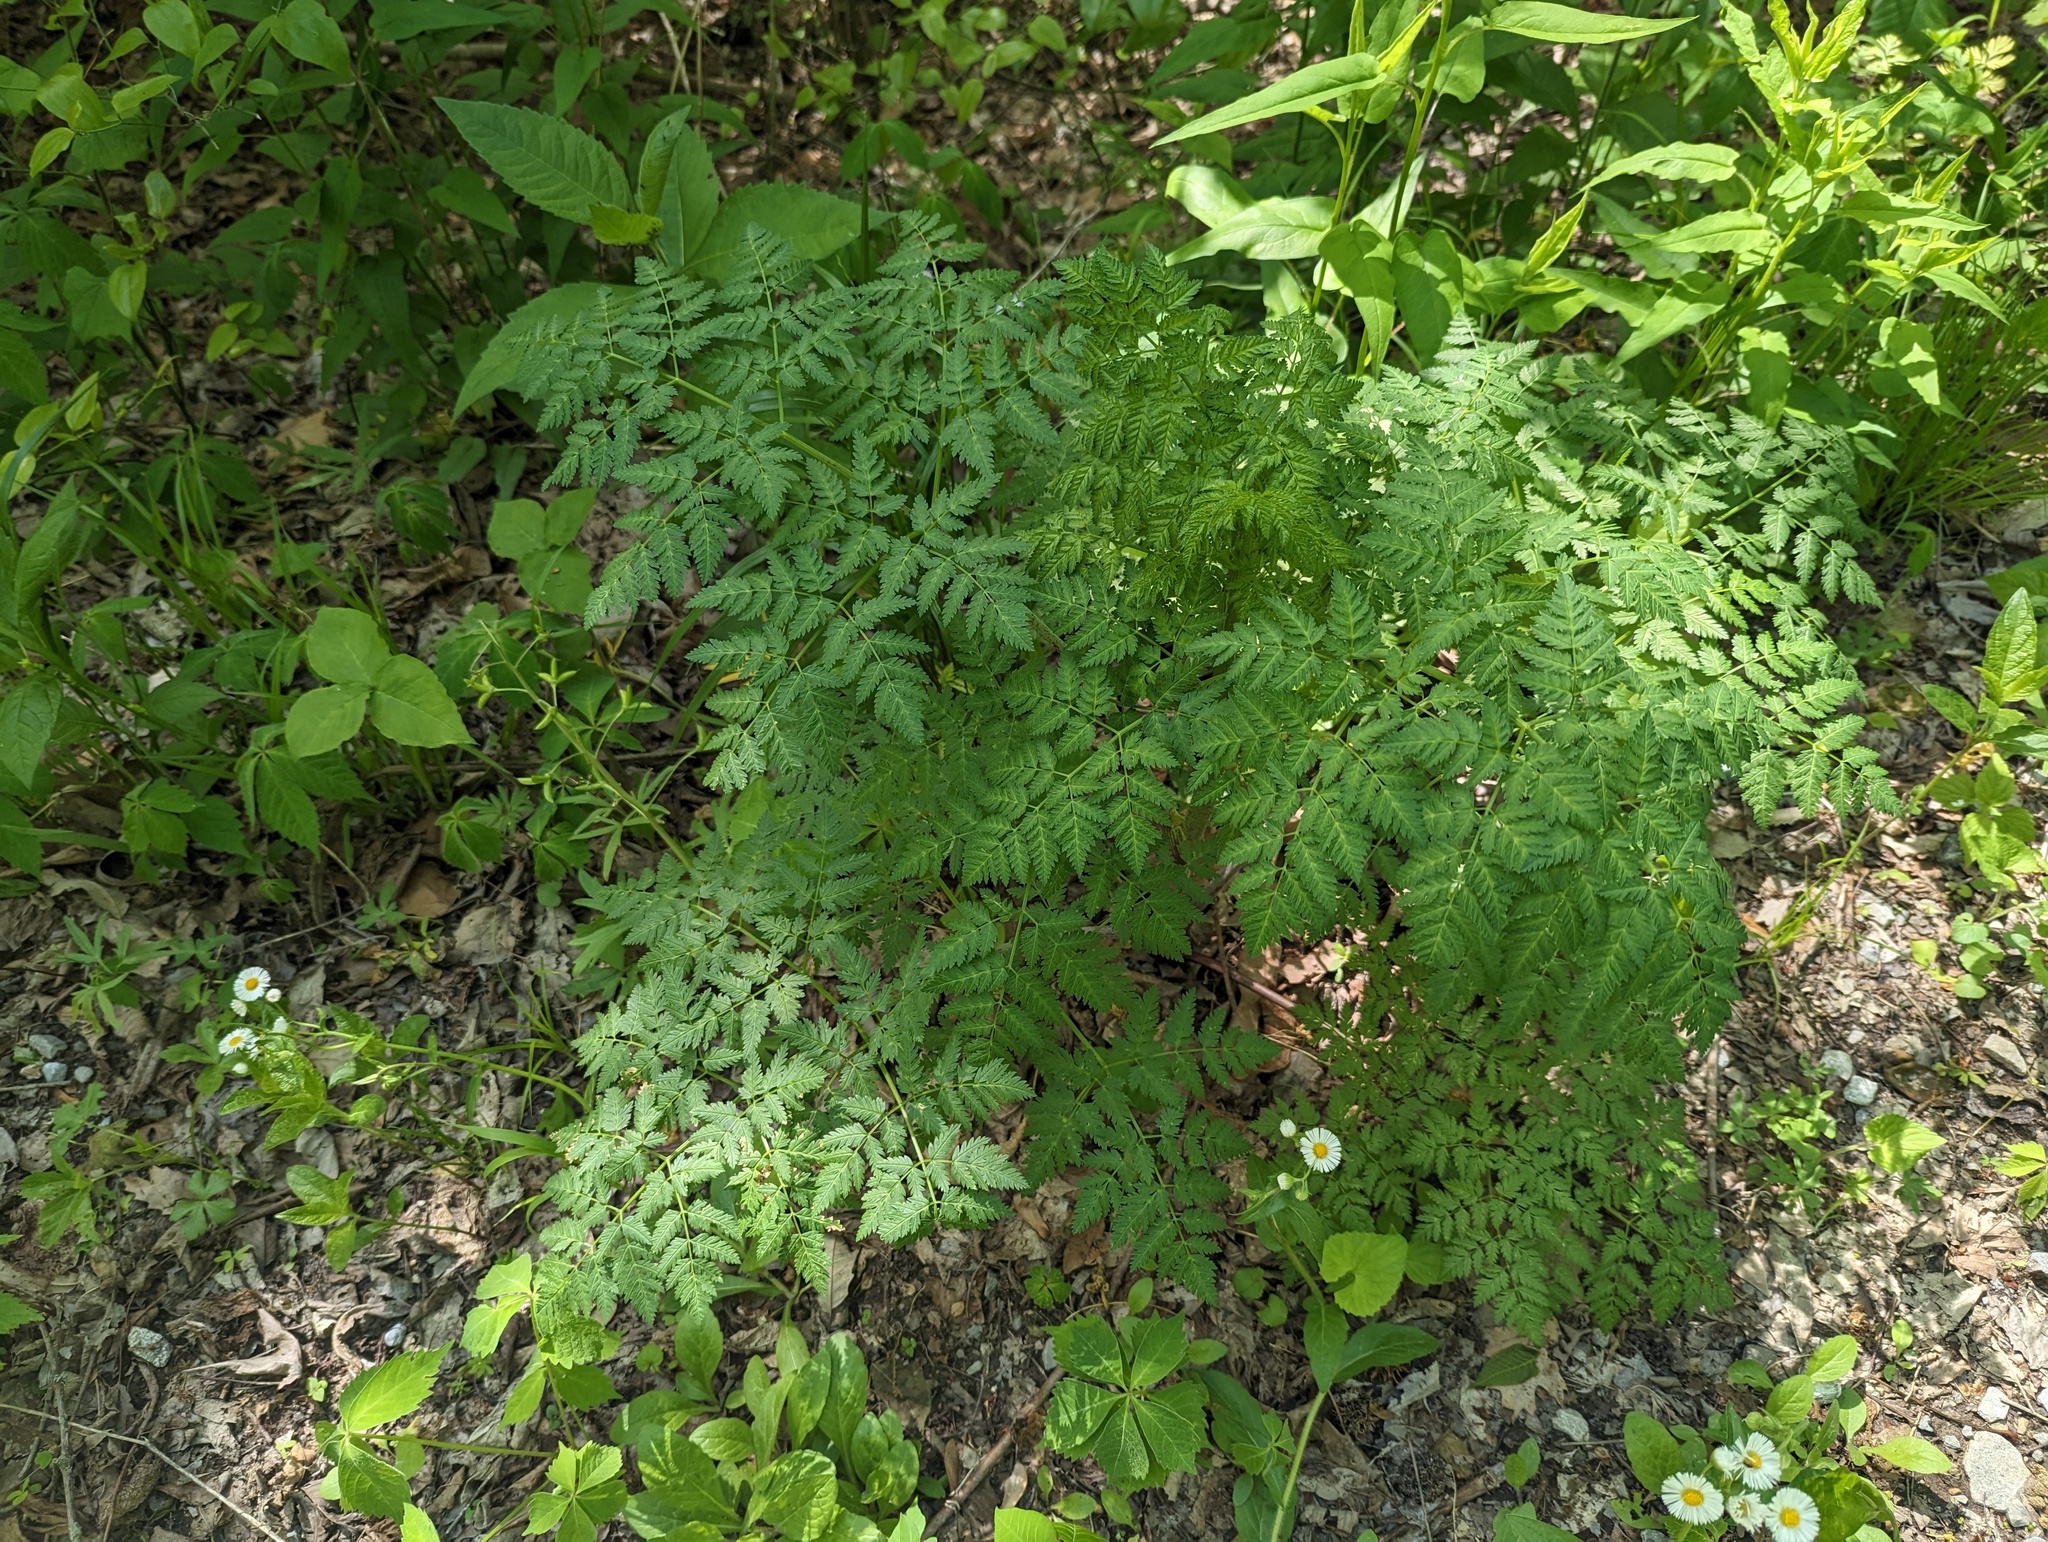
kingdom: Plantae
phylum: Tracheophyta
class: Magnoliopsida
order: Apiales
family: Apiaceae
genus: Conium
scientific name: Conium maculatum
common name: Hemlock
